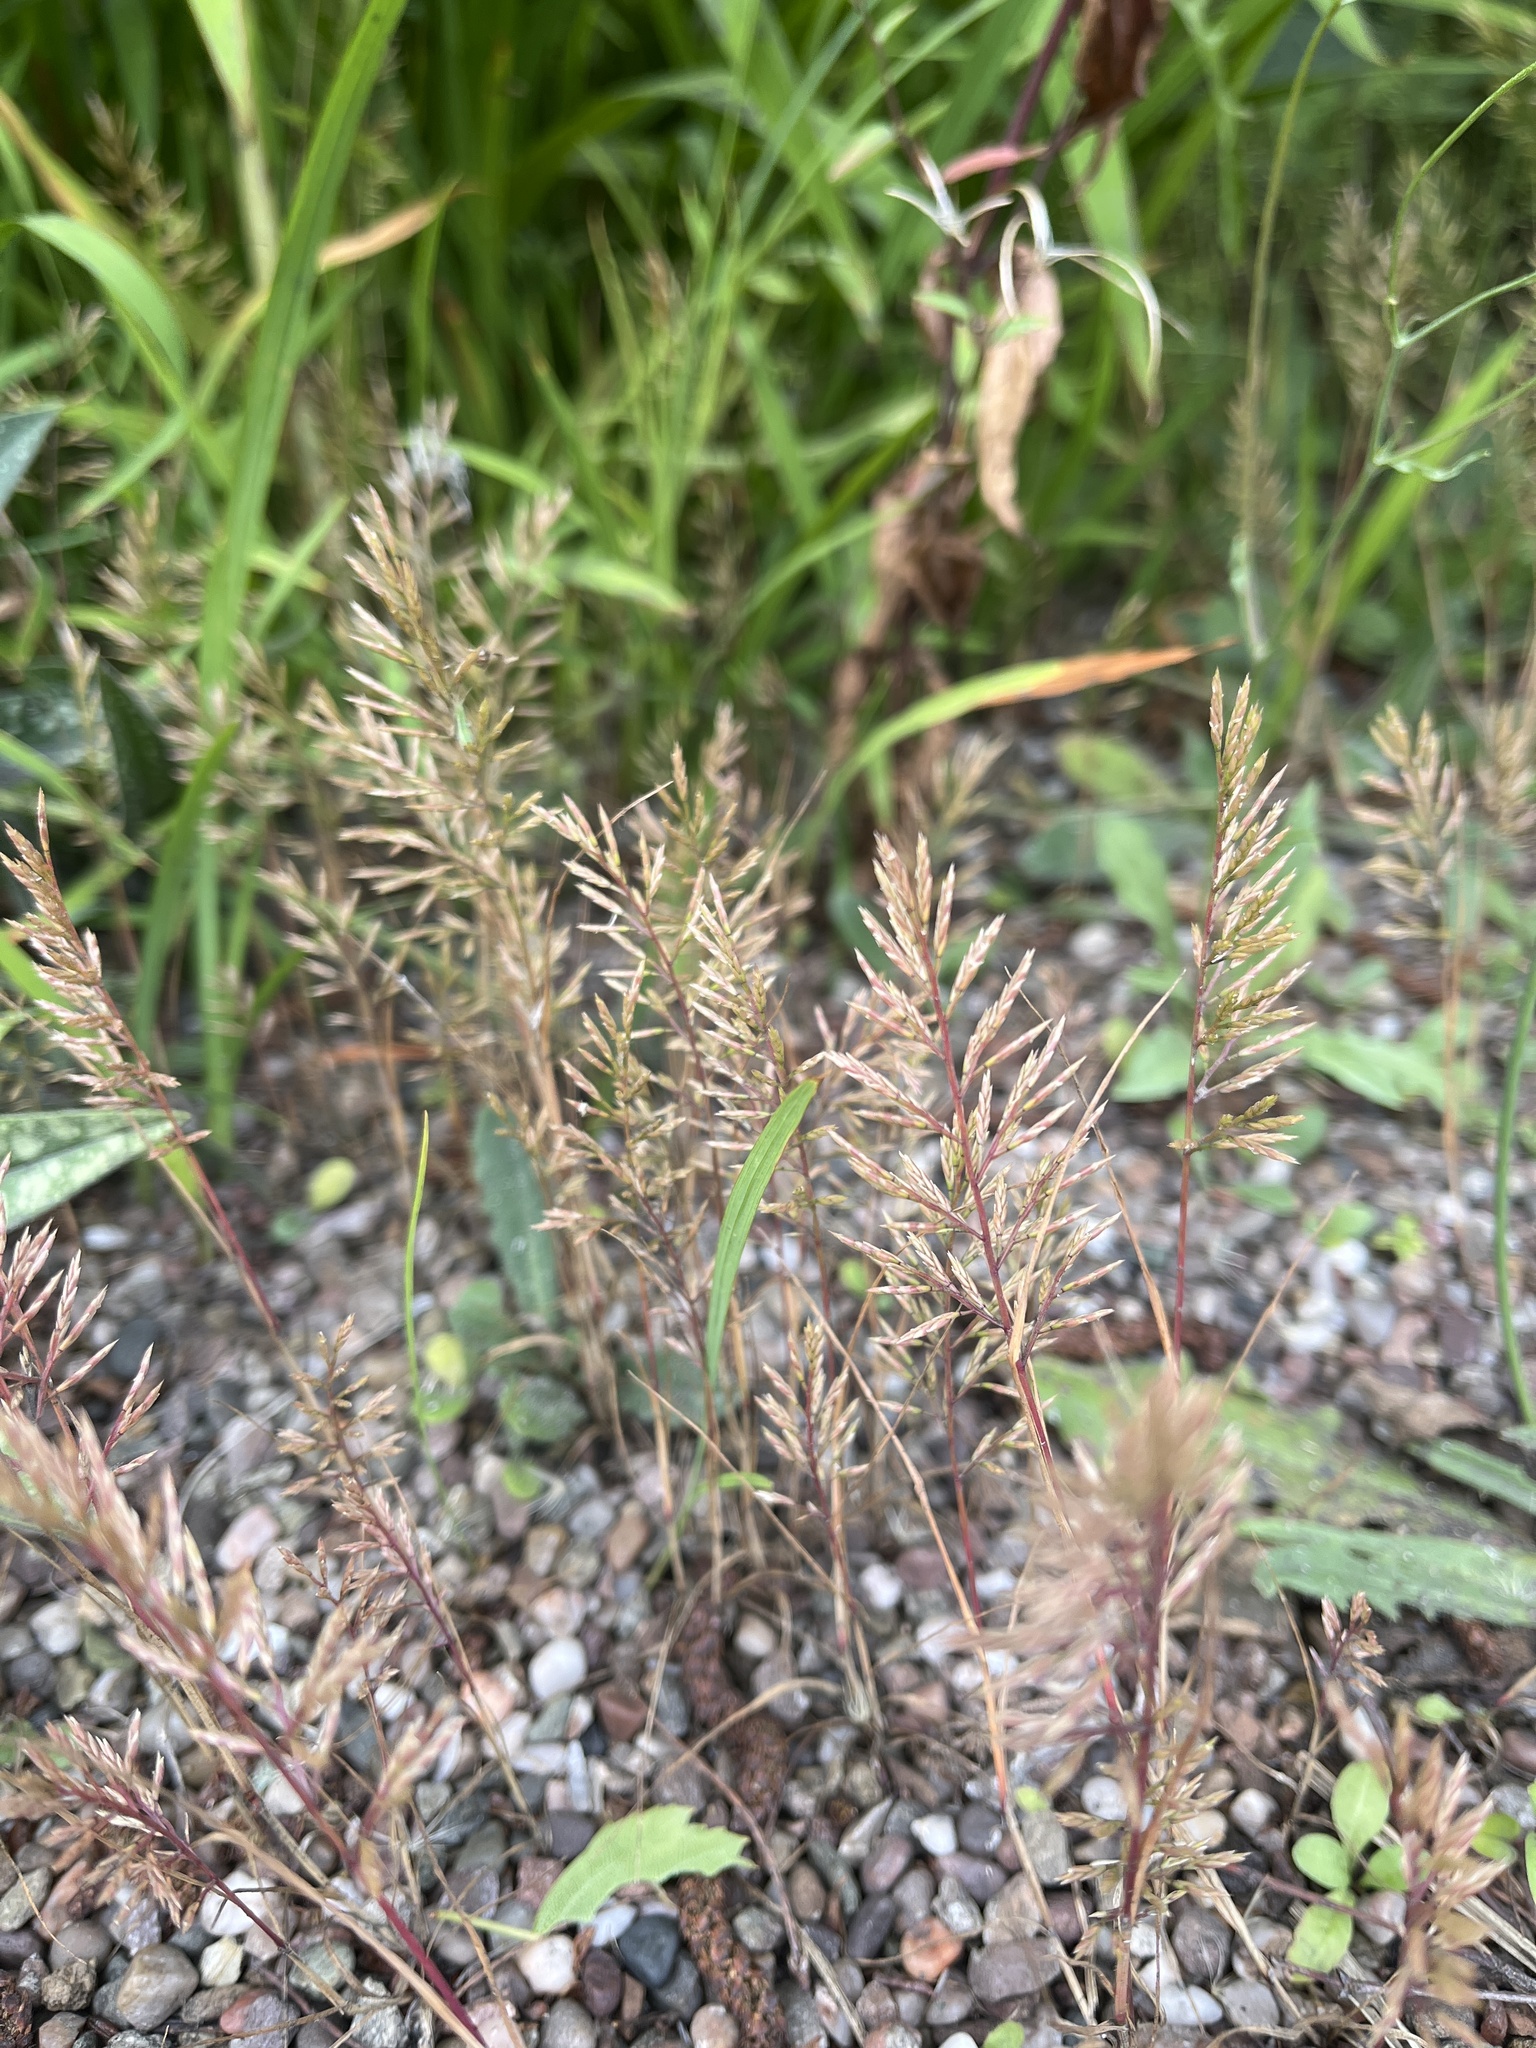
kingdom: Plantae
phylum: Tracheophyta
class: Liliopsida
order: Poales
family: Poaceae
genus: Catapodium
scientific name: Catapodium rigidum
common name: Fern-grass
